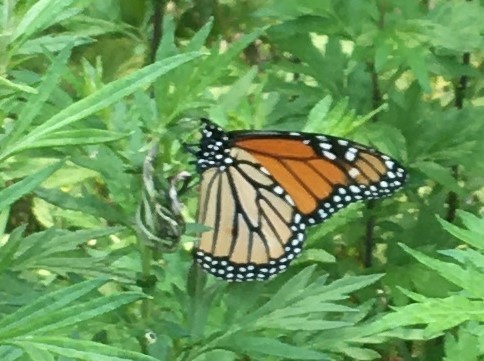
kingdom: Animalia
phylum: Arthropoda
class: Insecta
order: Lepidoptera
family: Nymphalidae
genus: Danaus
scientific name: Danaus plexippus
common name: Monarch
